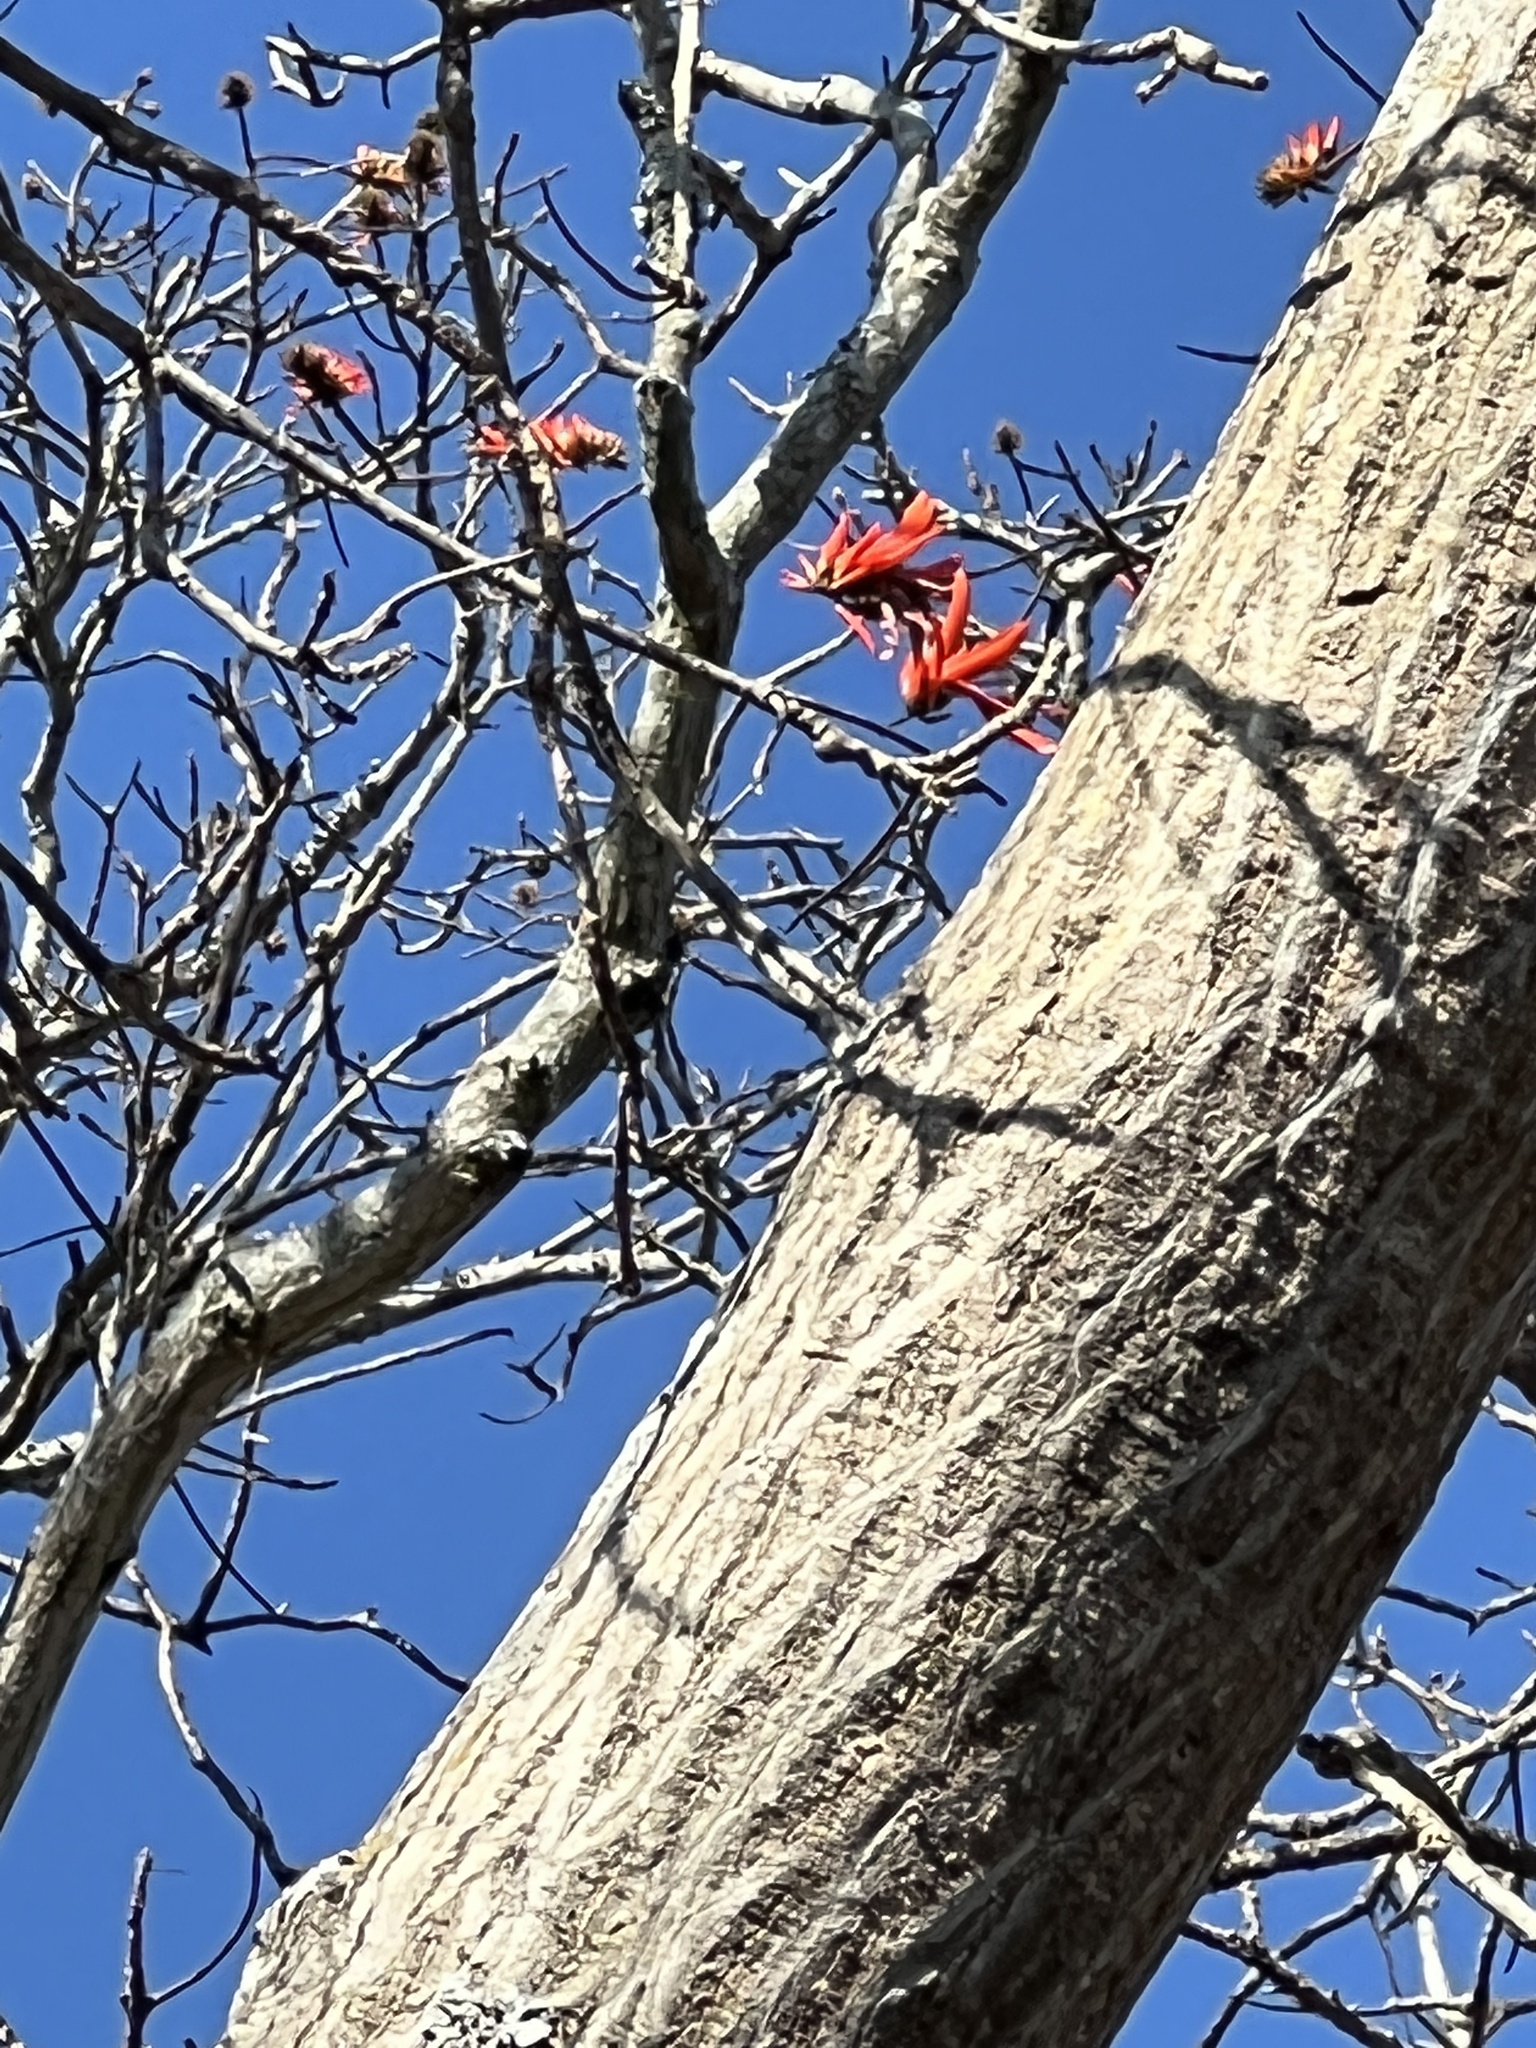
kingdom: Plantae
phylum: Tracheophyta
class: Magnoliopsida
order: Fabales
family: Fabaceae
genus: Erythrina
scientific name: Erythrina lysistemon
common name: Common coral tree
